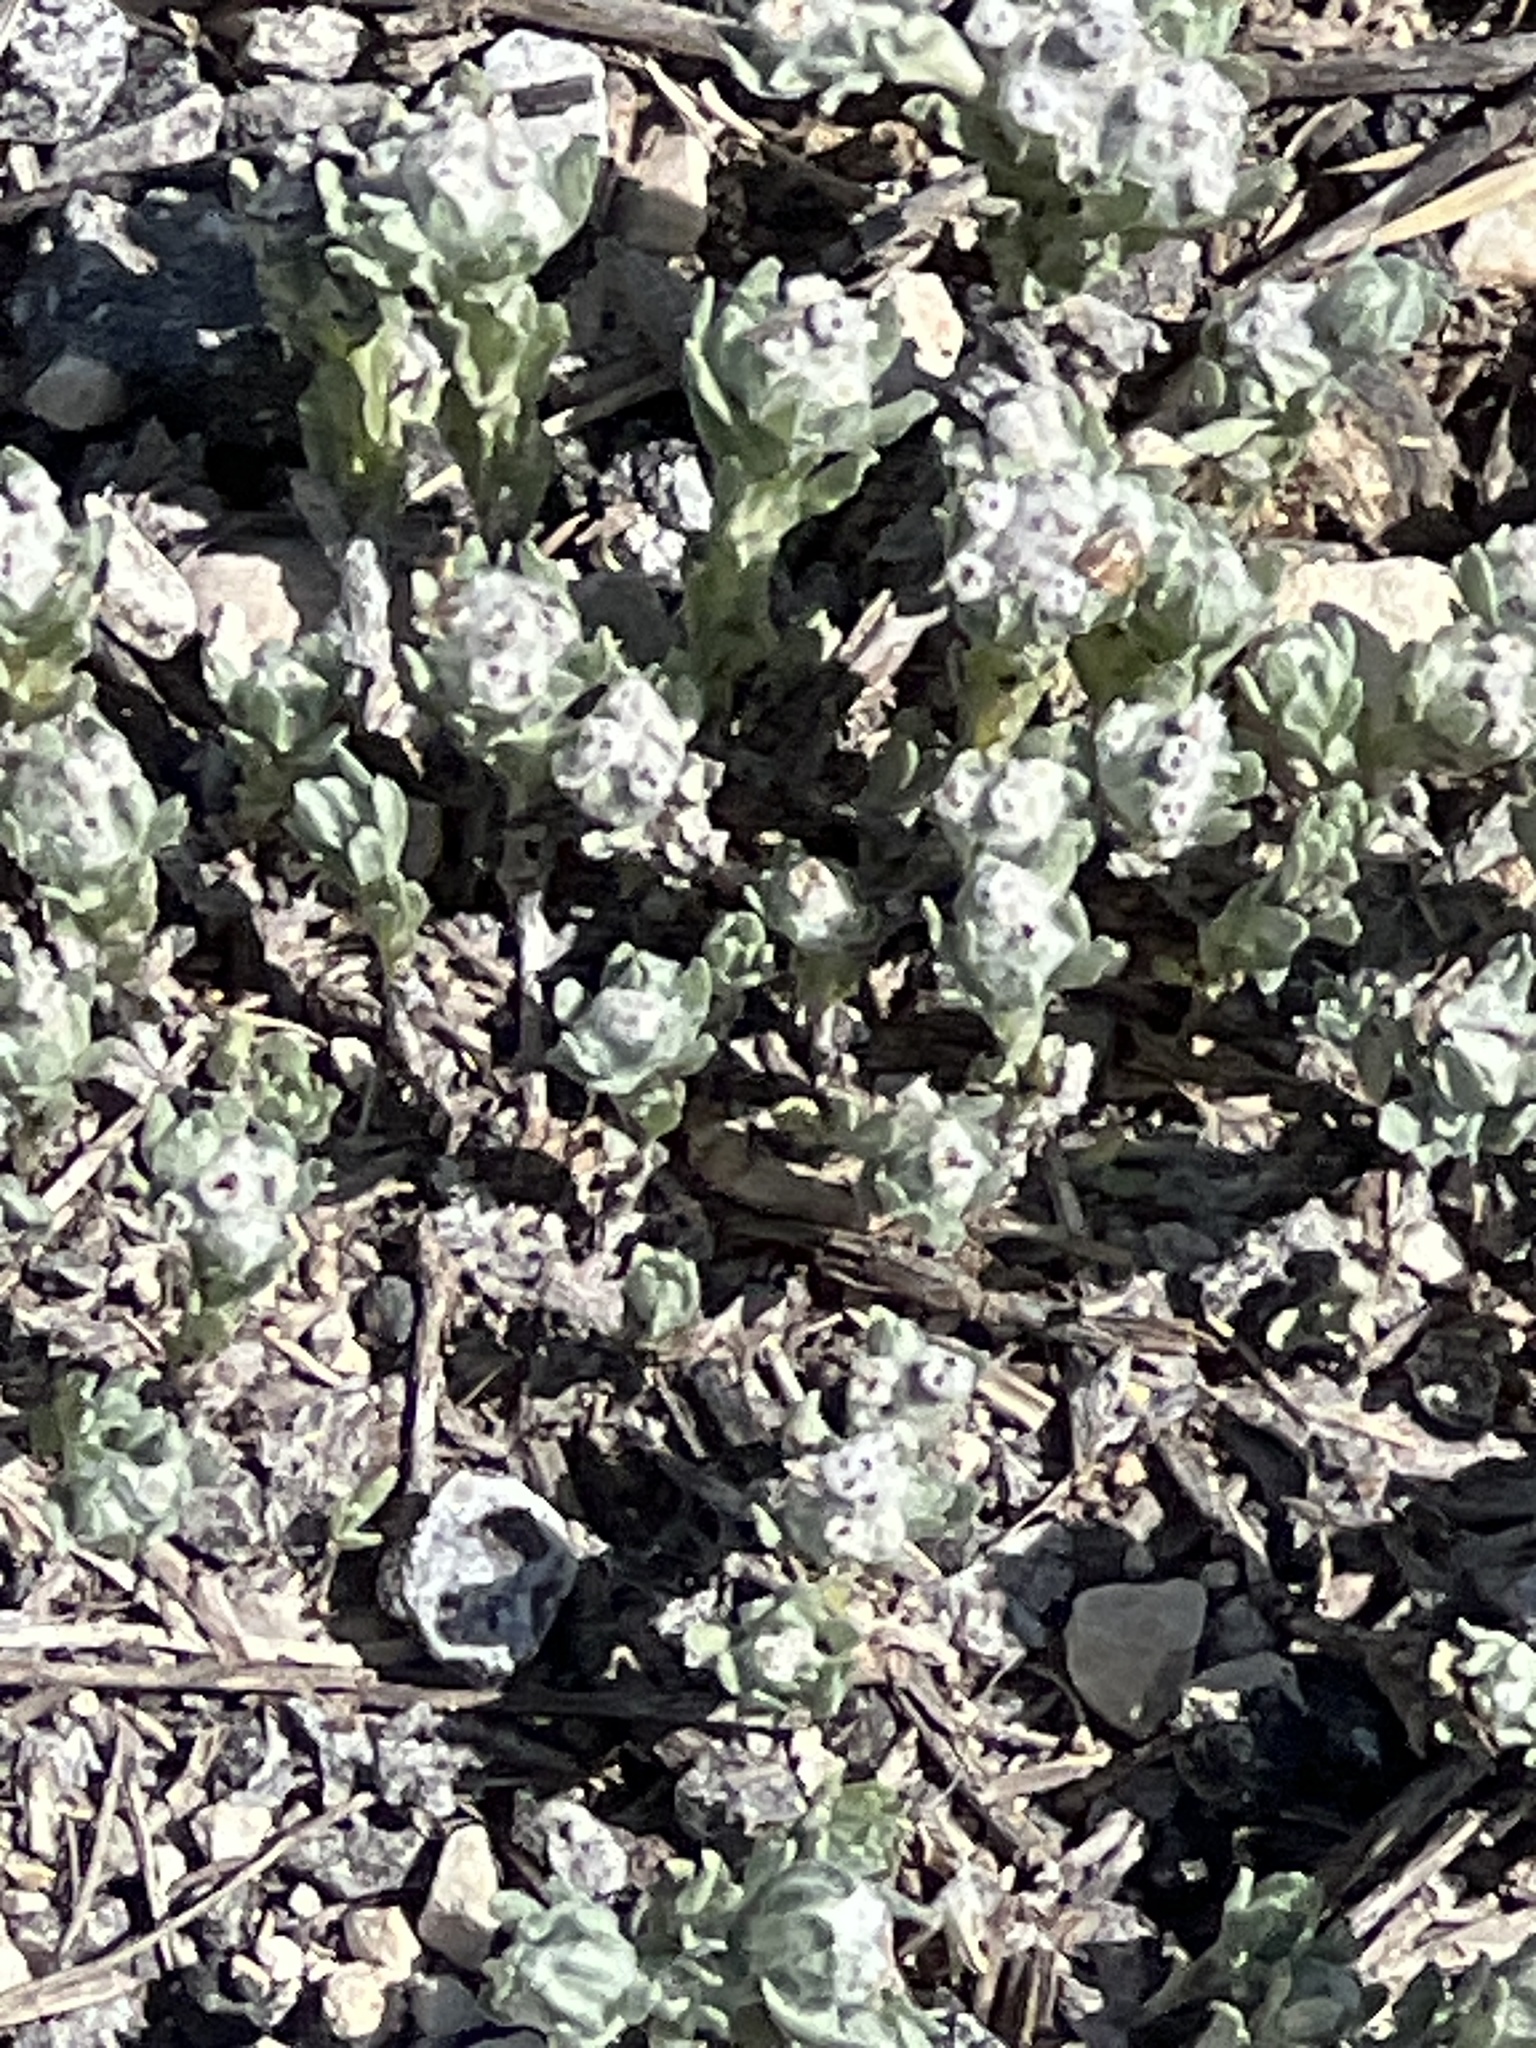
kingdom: Plantae
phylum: Tracheophyta
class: Magnoliopsida
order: Asterales
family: Asteraceae
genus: Diaperia
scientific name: Diaperia verna
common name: Many-stem rabbit-tobacco
